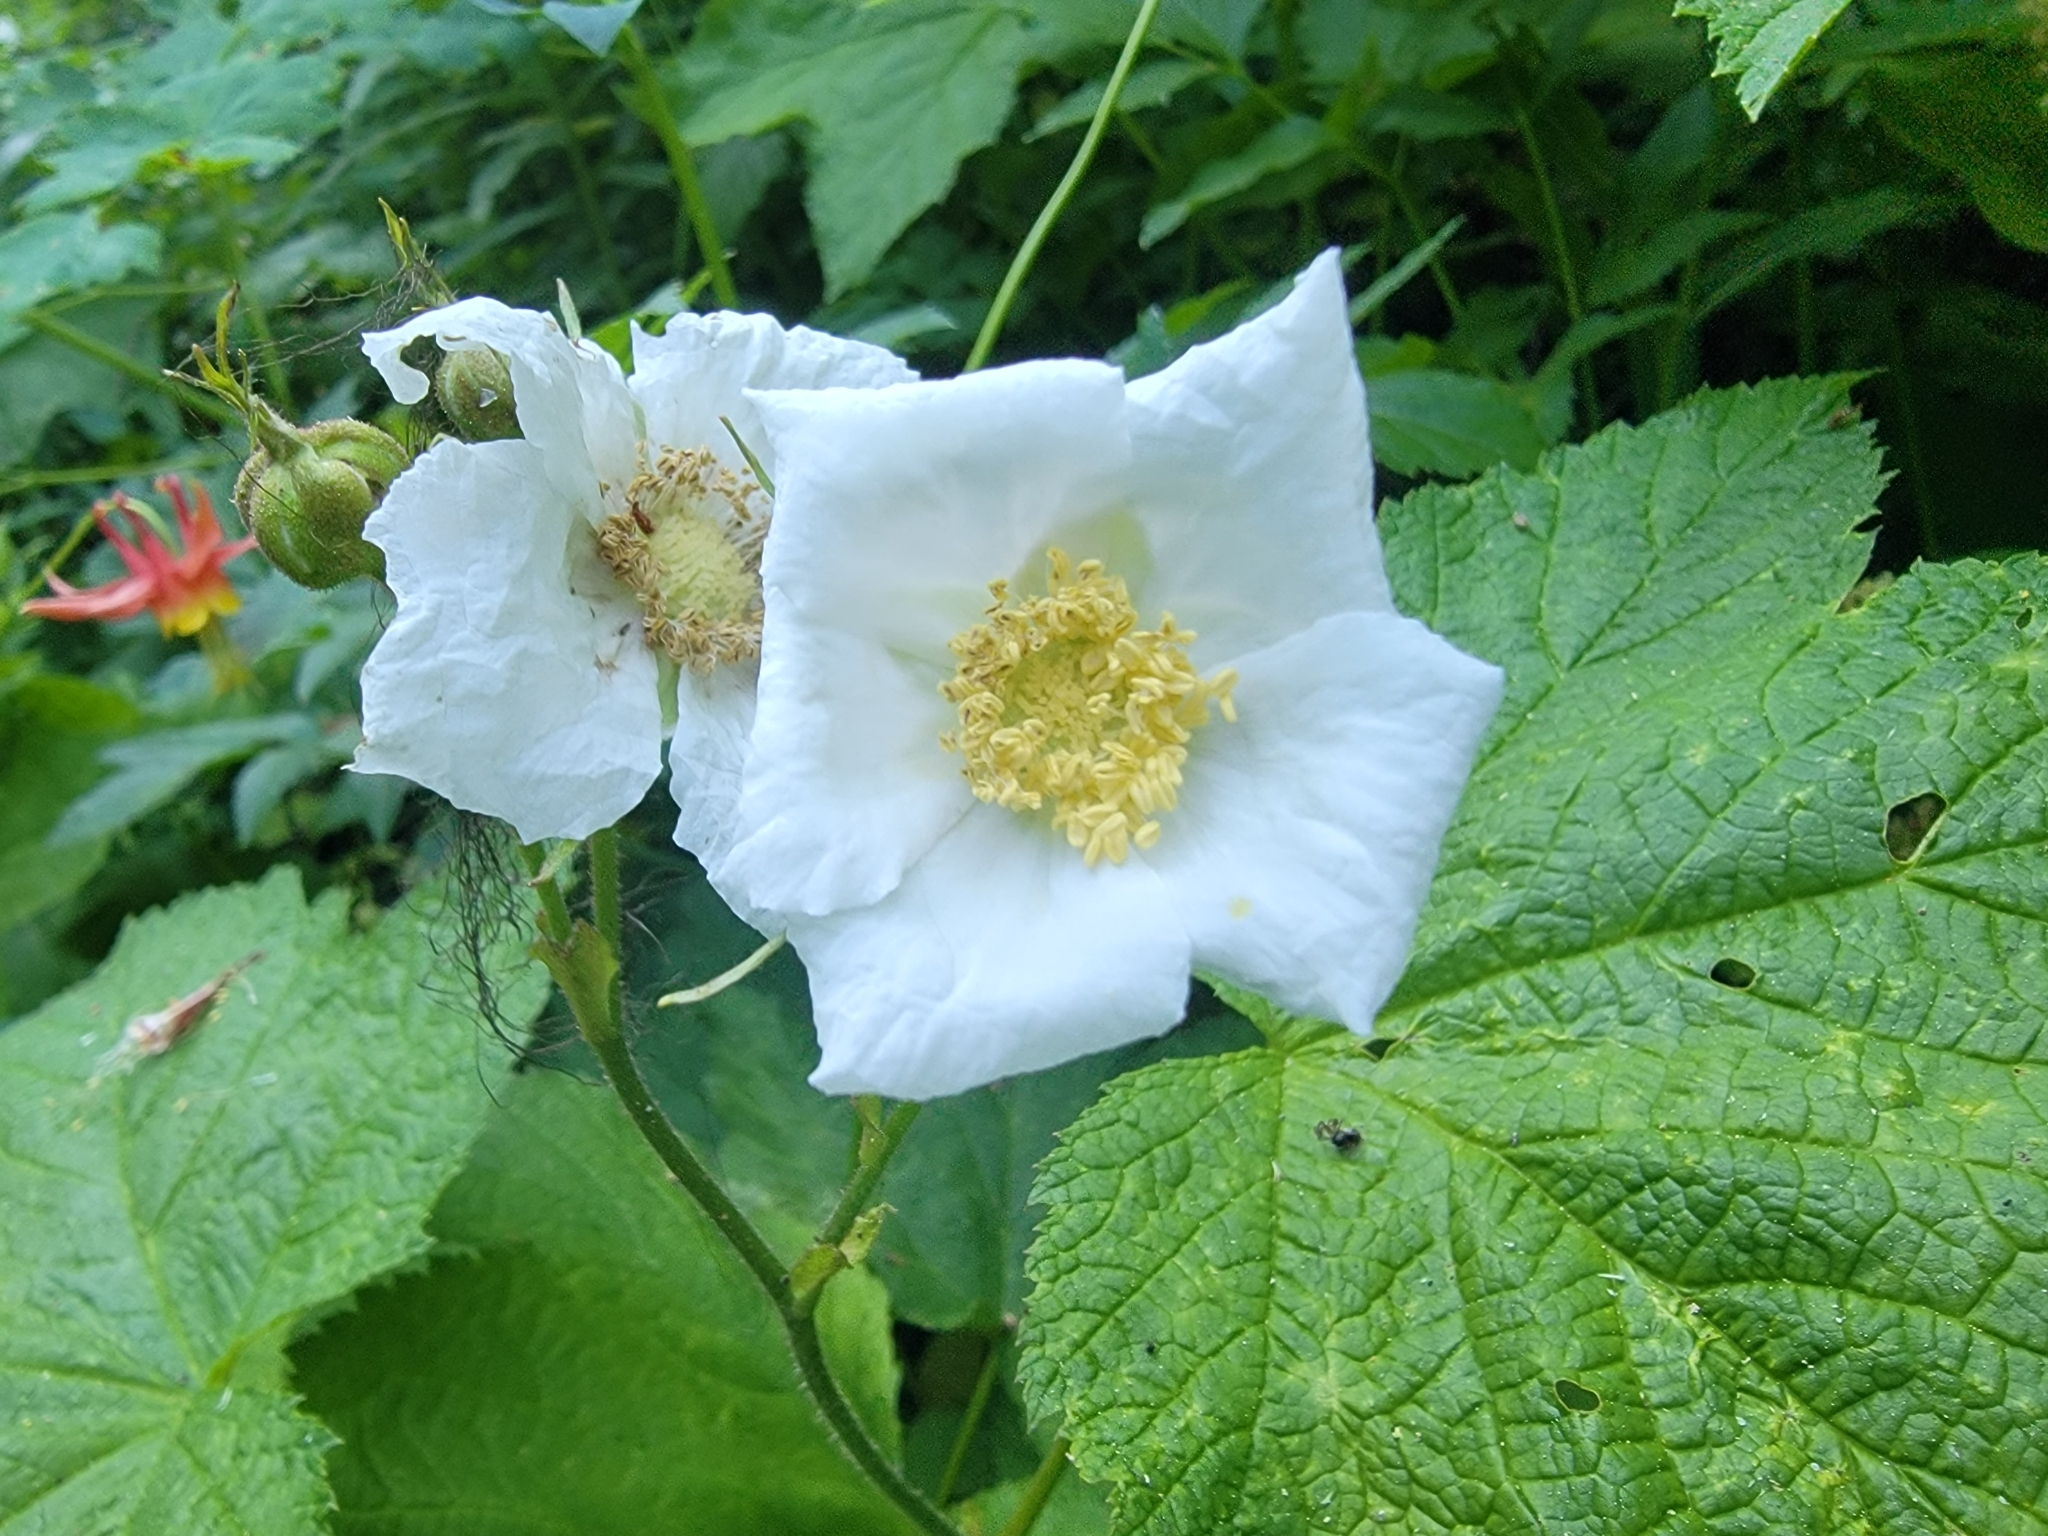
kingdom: Plantae
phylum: Tracheophyta
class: Magnoliopsida
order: Rosales
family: Rosaceae
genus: Rubus
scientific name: Rubus parviflorus
